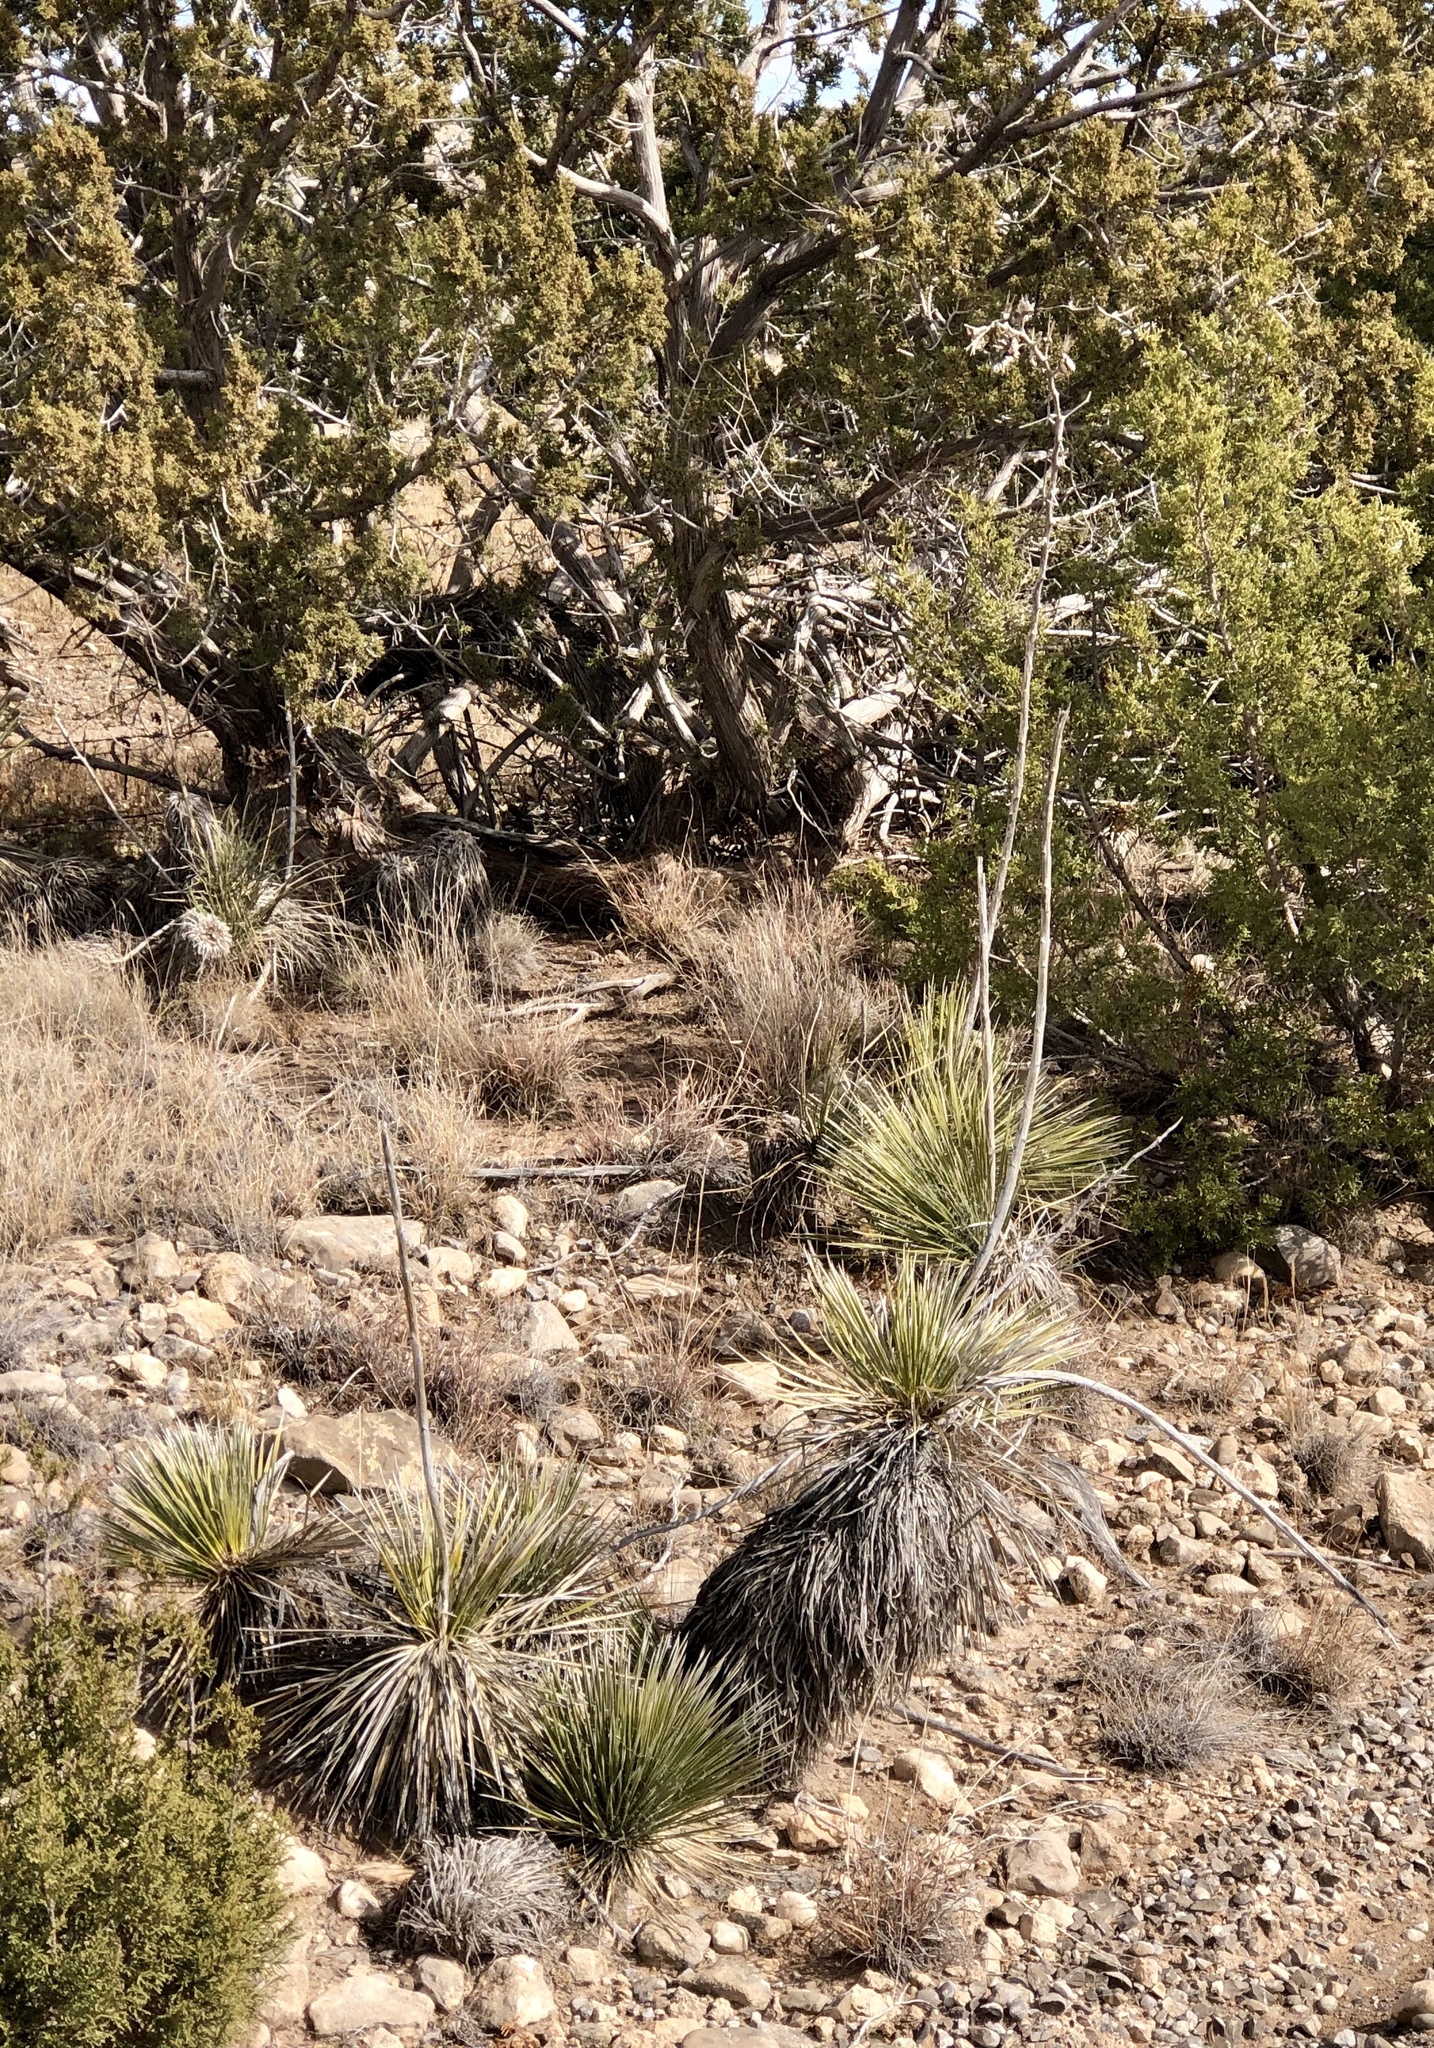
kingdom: Plantae
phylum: Tracheophyta
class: Liliopsida
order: Asparagales
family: Asparagaceae
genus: Yucca
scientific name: Yucca elata
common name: Palmella
